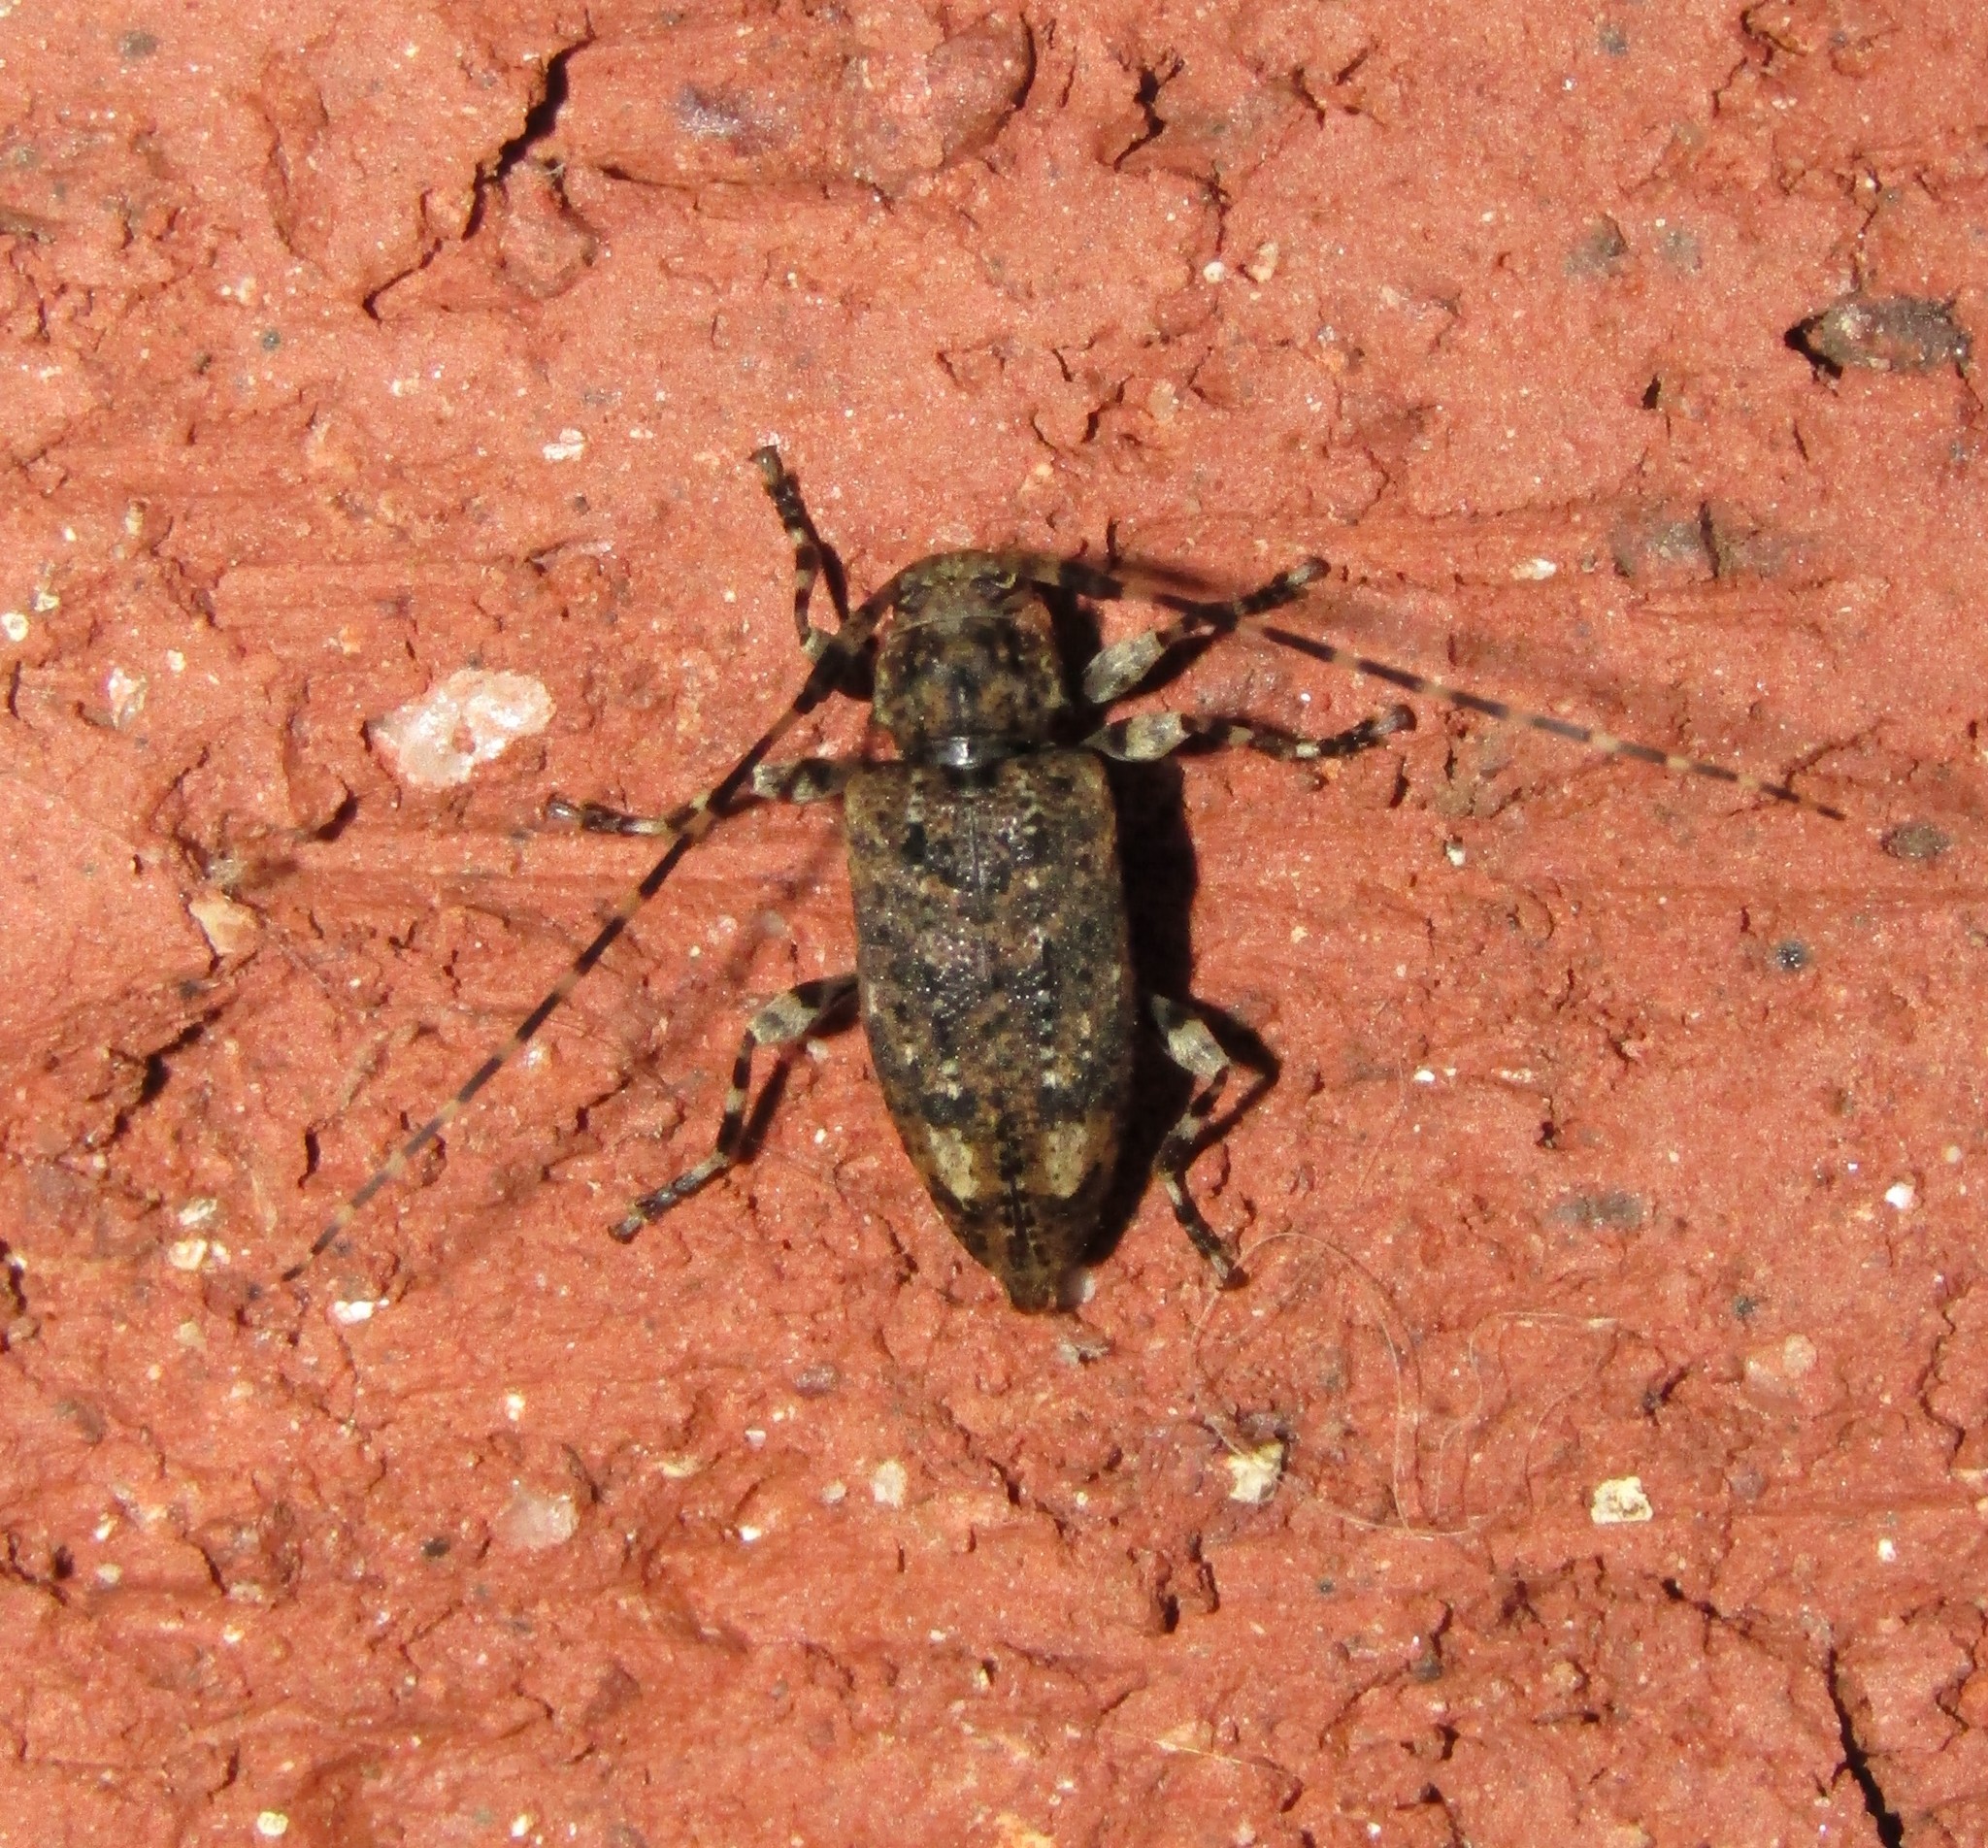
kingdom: Animalia
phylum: Arthropoda
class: Insecta
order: Coleoptera
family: Cerambycidae
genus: Astyleiopus
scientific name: Astyleiopus variegatus
